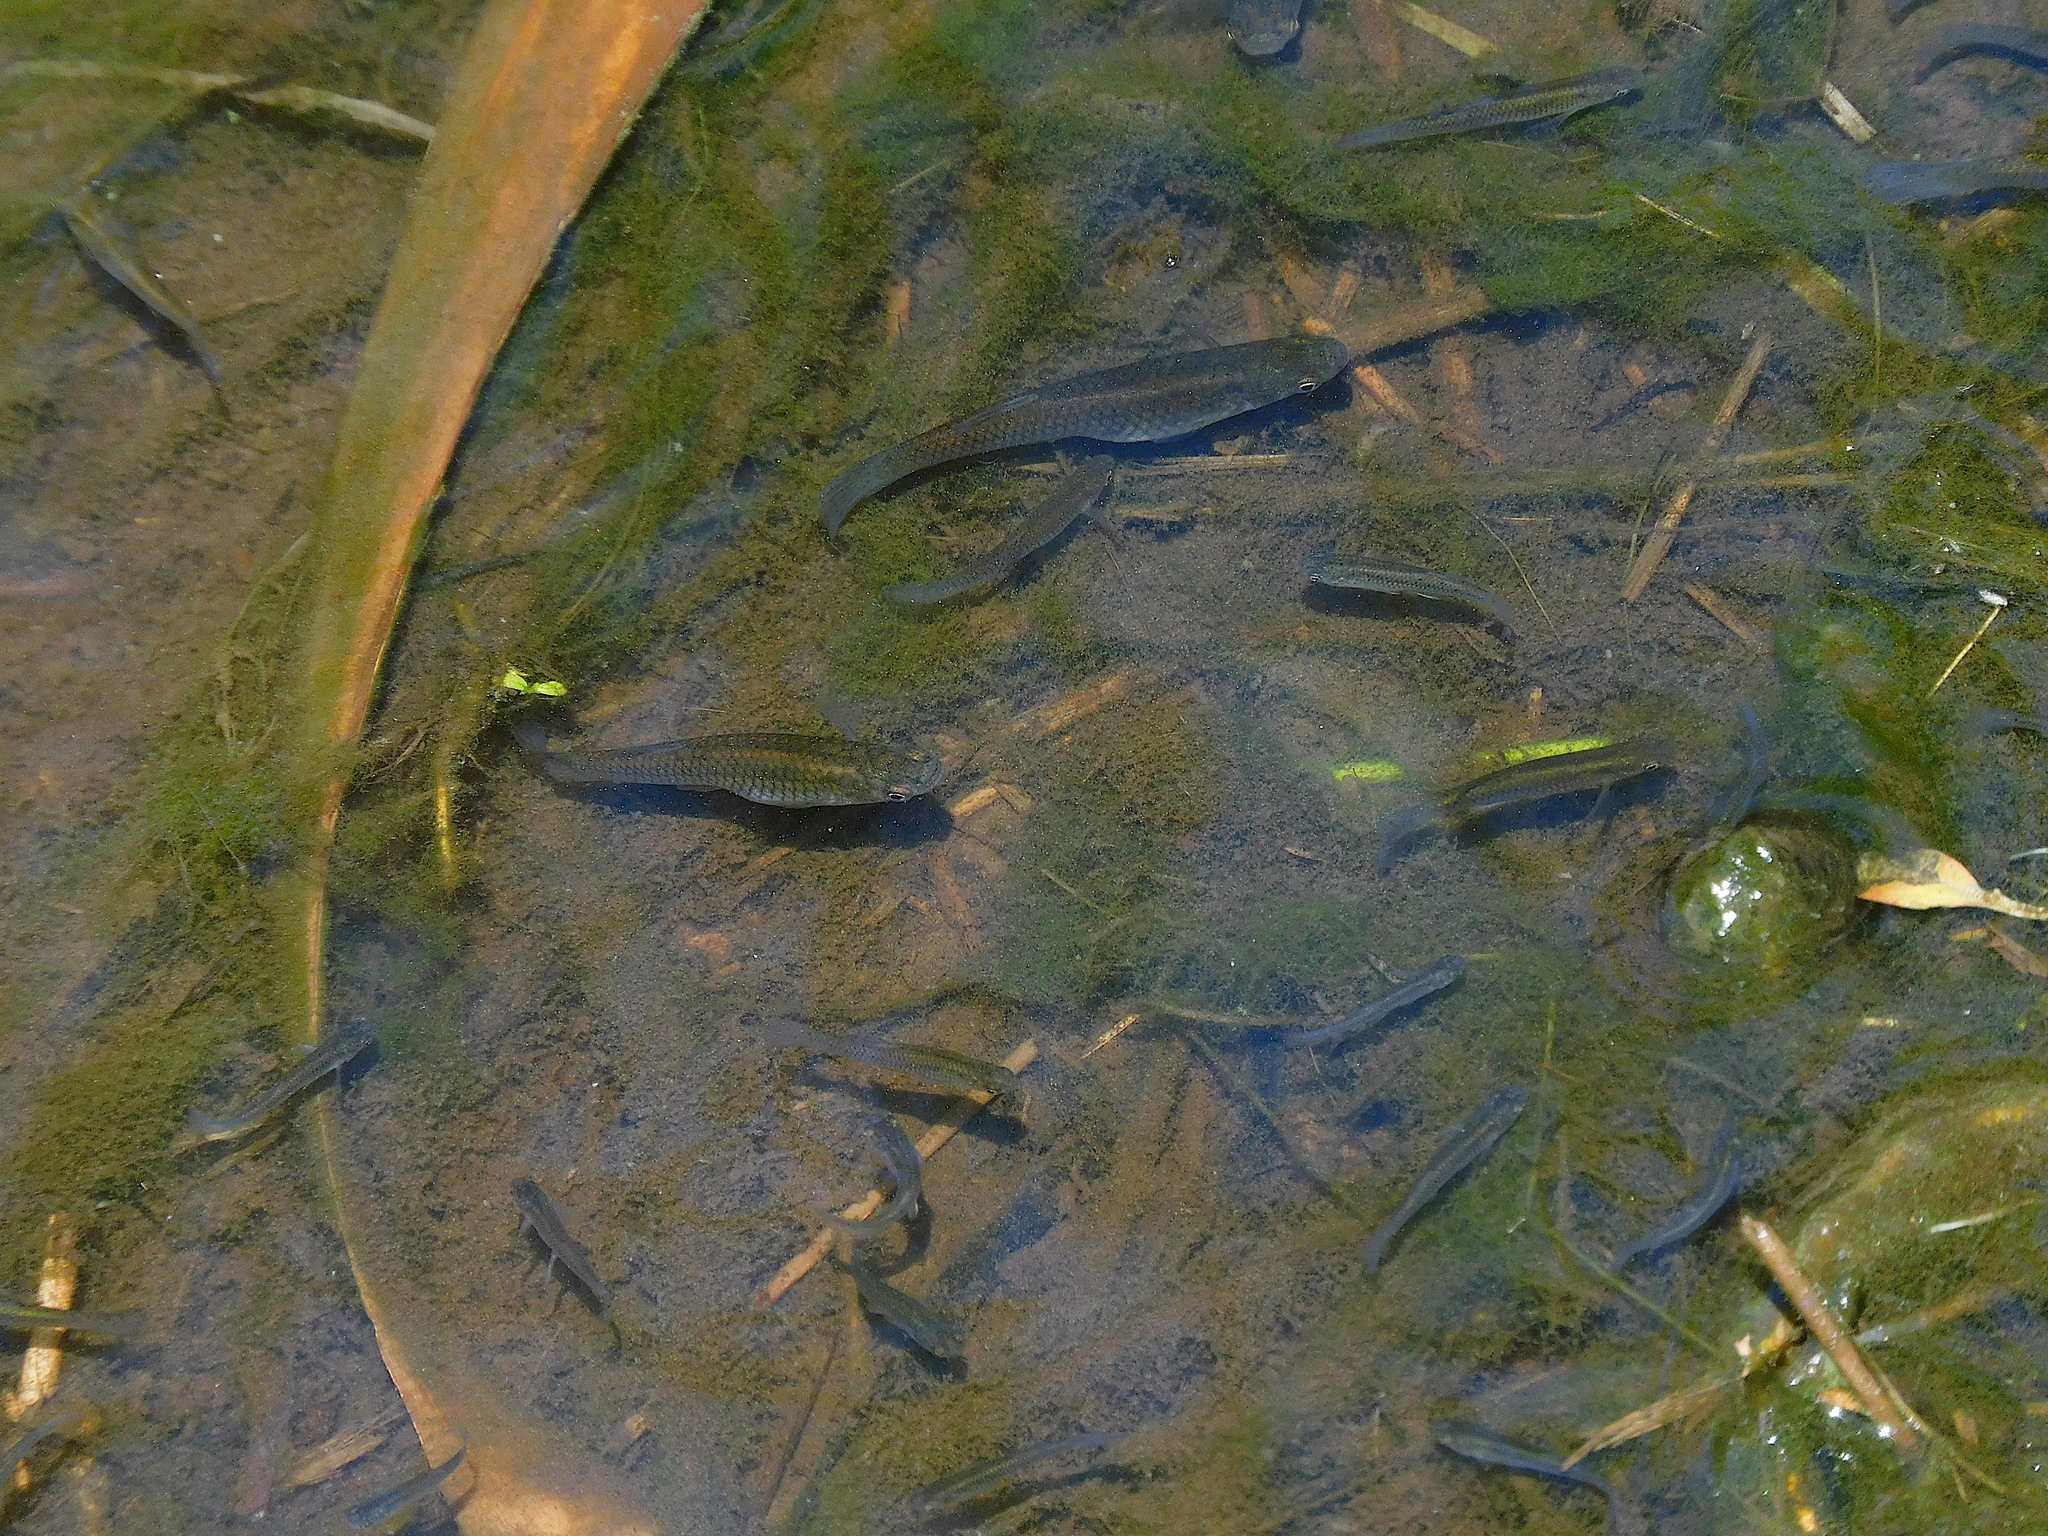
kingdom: Animalia
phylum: Chordata
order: Cyprinodontiformes
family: Poeciliidae
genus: Gambusia
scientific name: Gambusia affinis
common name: Mosquitofish
